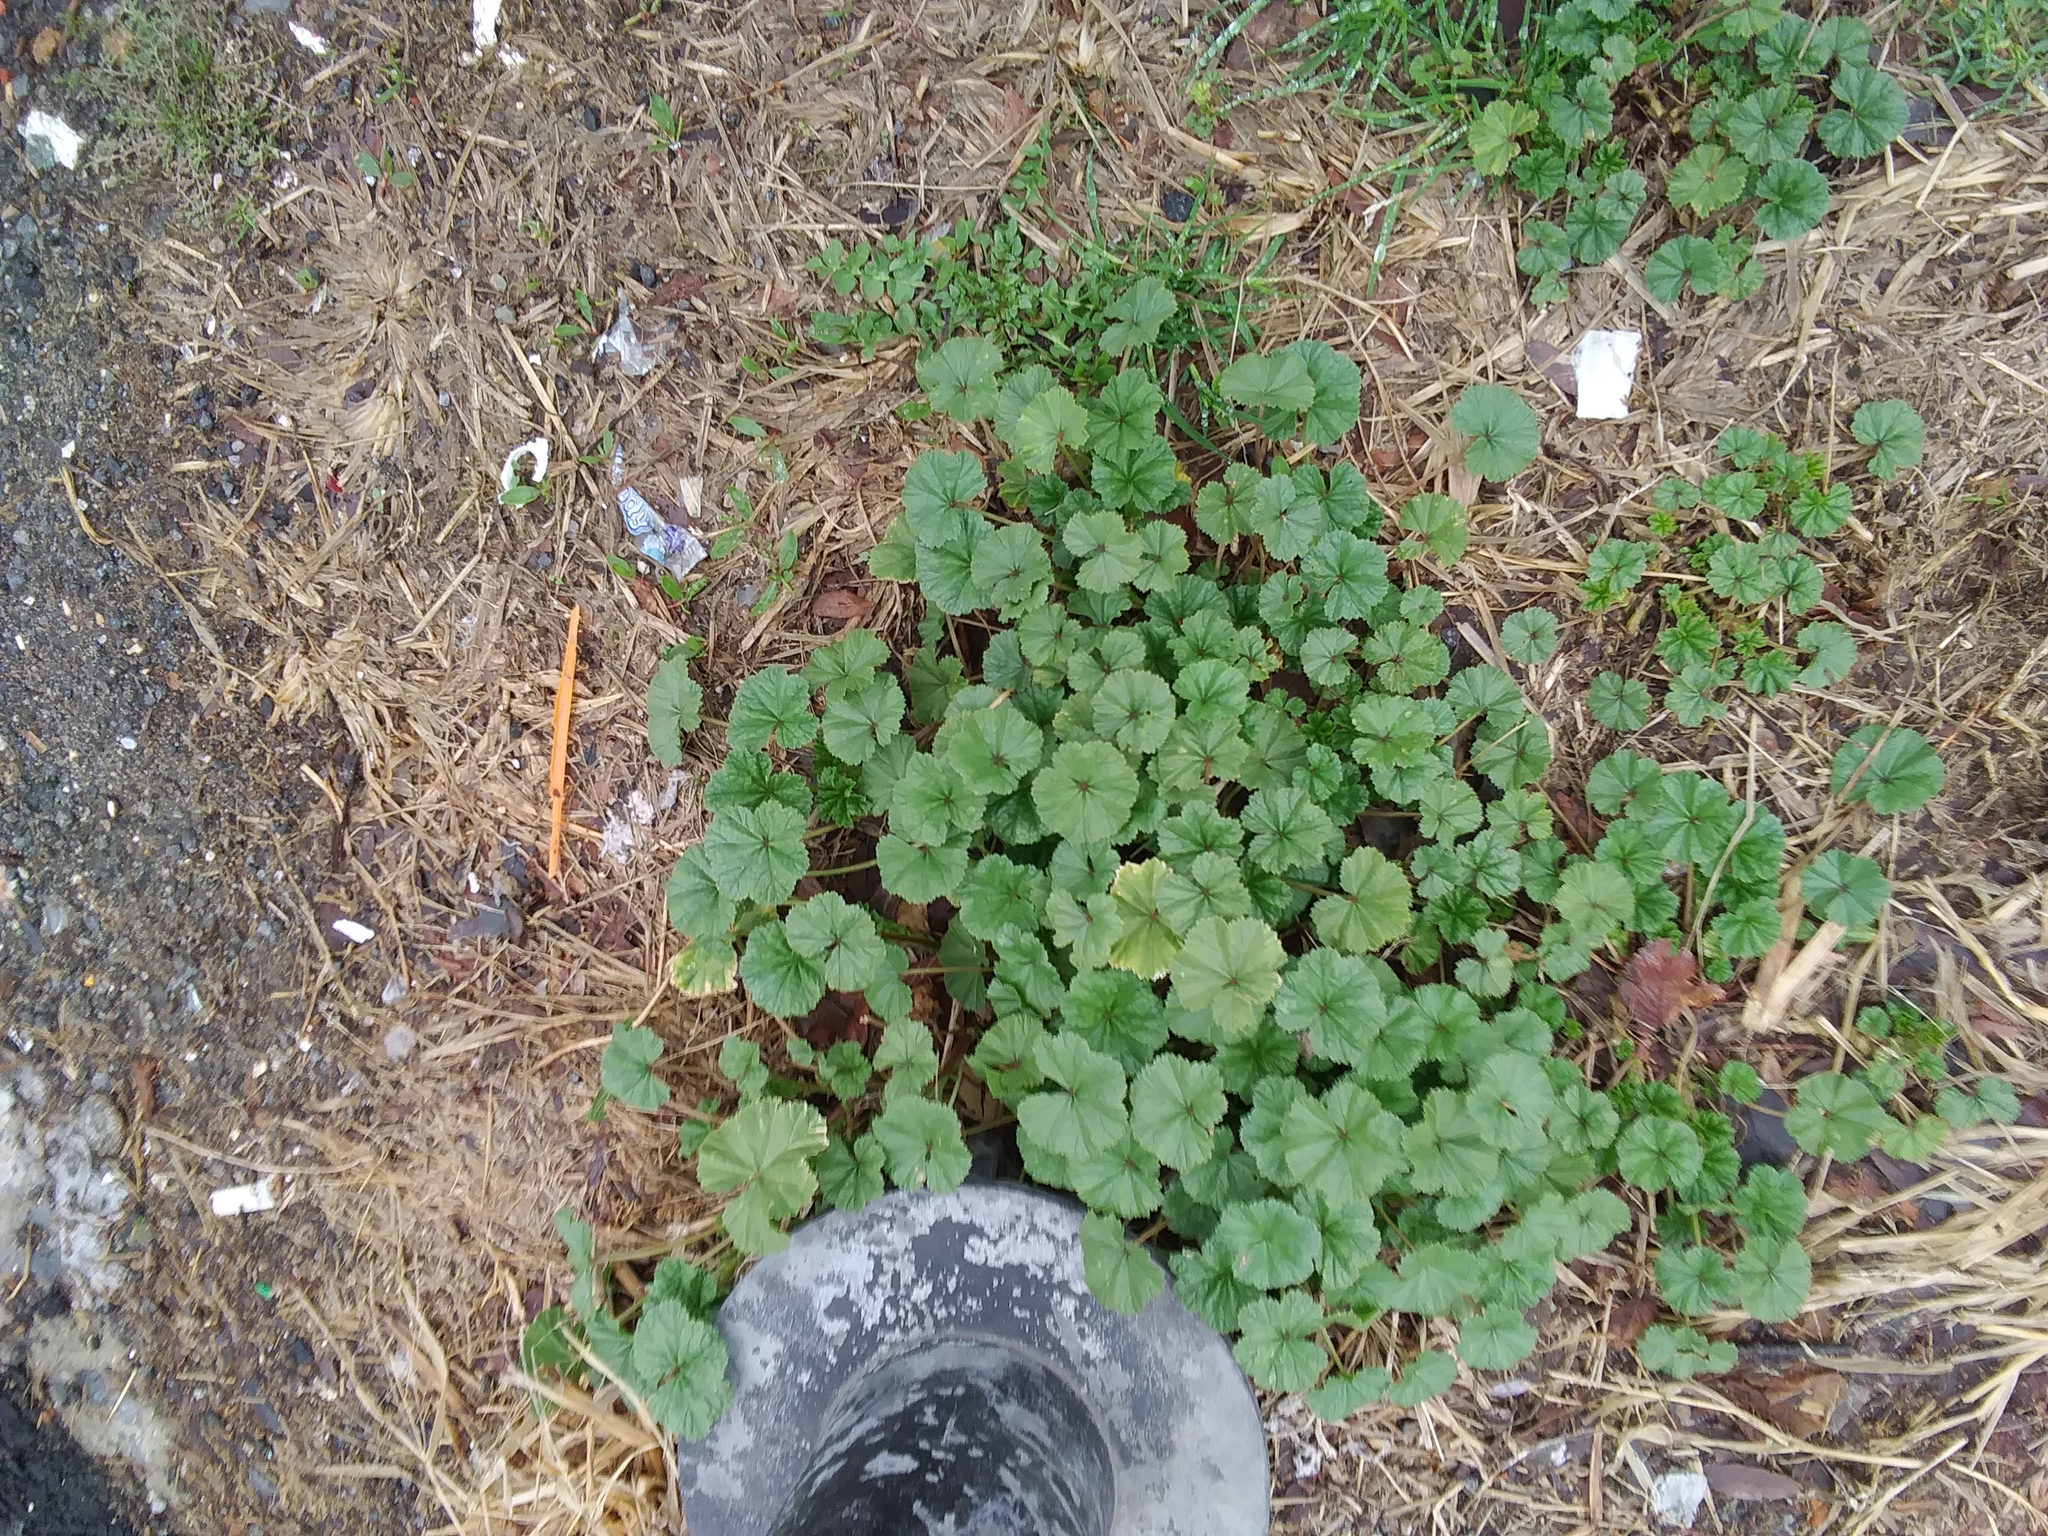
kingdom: Plantae
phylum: Tracheophyta
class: Magnoliopsida
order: Malvales
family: Malvaceae
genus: Malva
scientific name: Malva neglecta
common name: Common mallow
